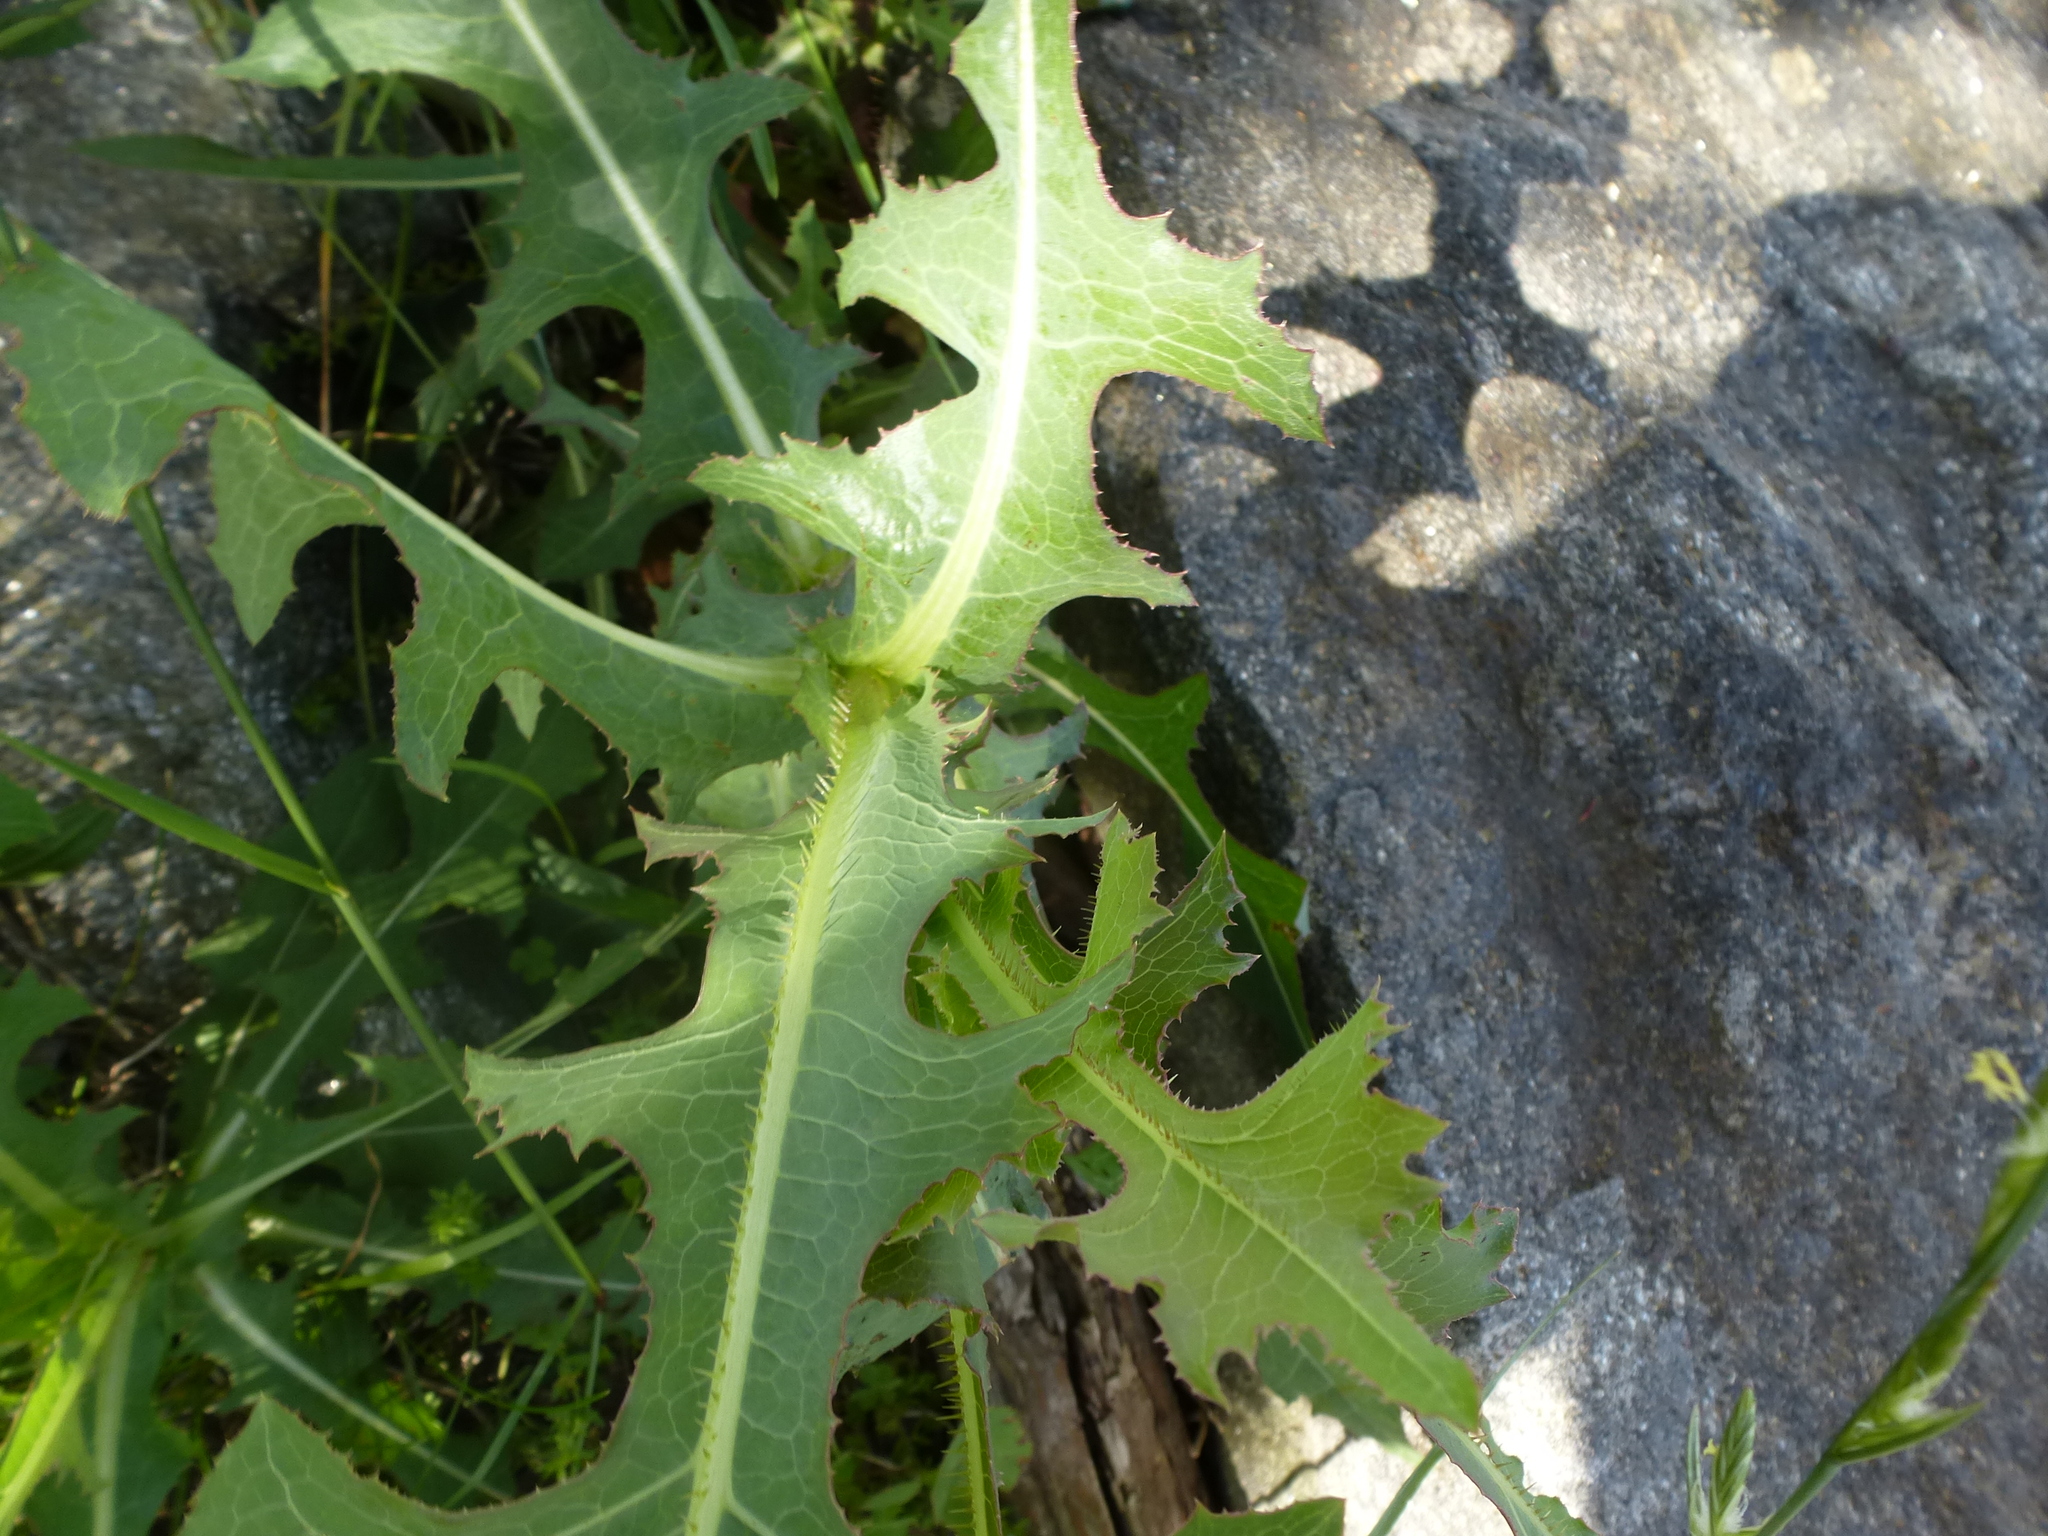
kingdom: Plantae
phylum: Tracheophyta
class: Magnoliopsida
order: Asterales
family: Asteraceae
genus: Lactuca
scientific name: Lactuca serriola
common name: Prickly lettuce
